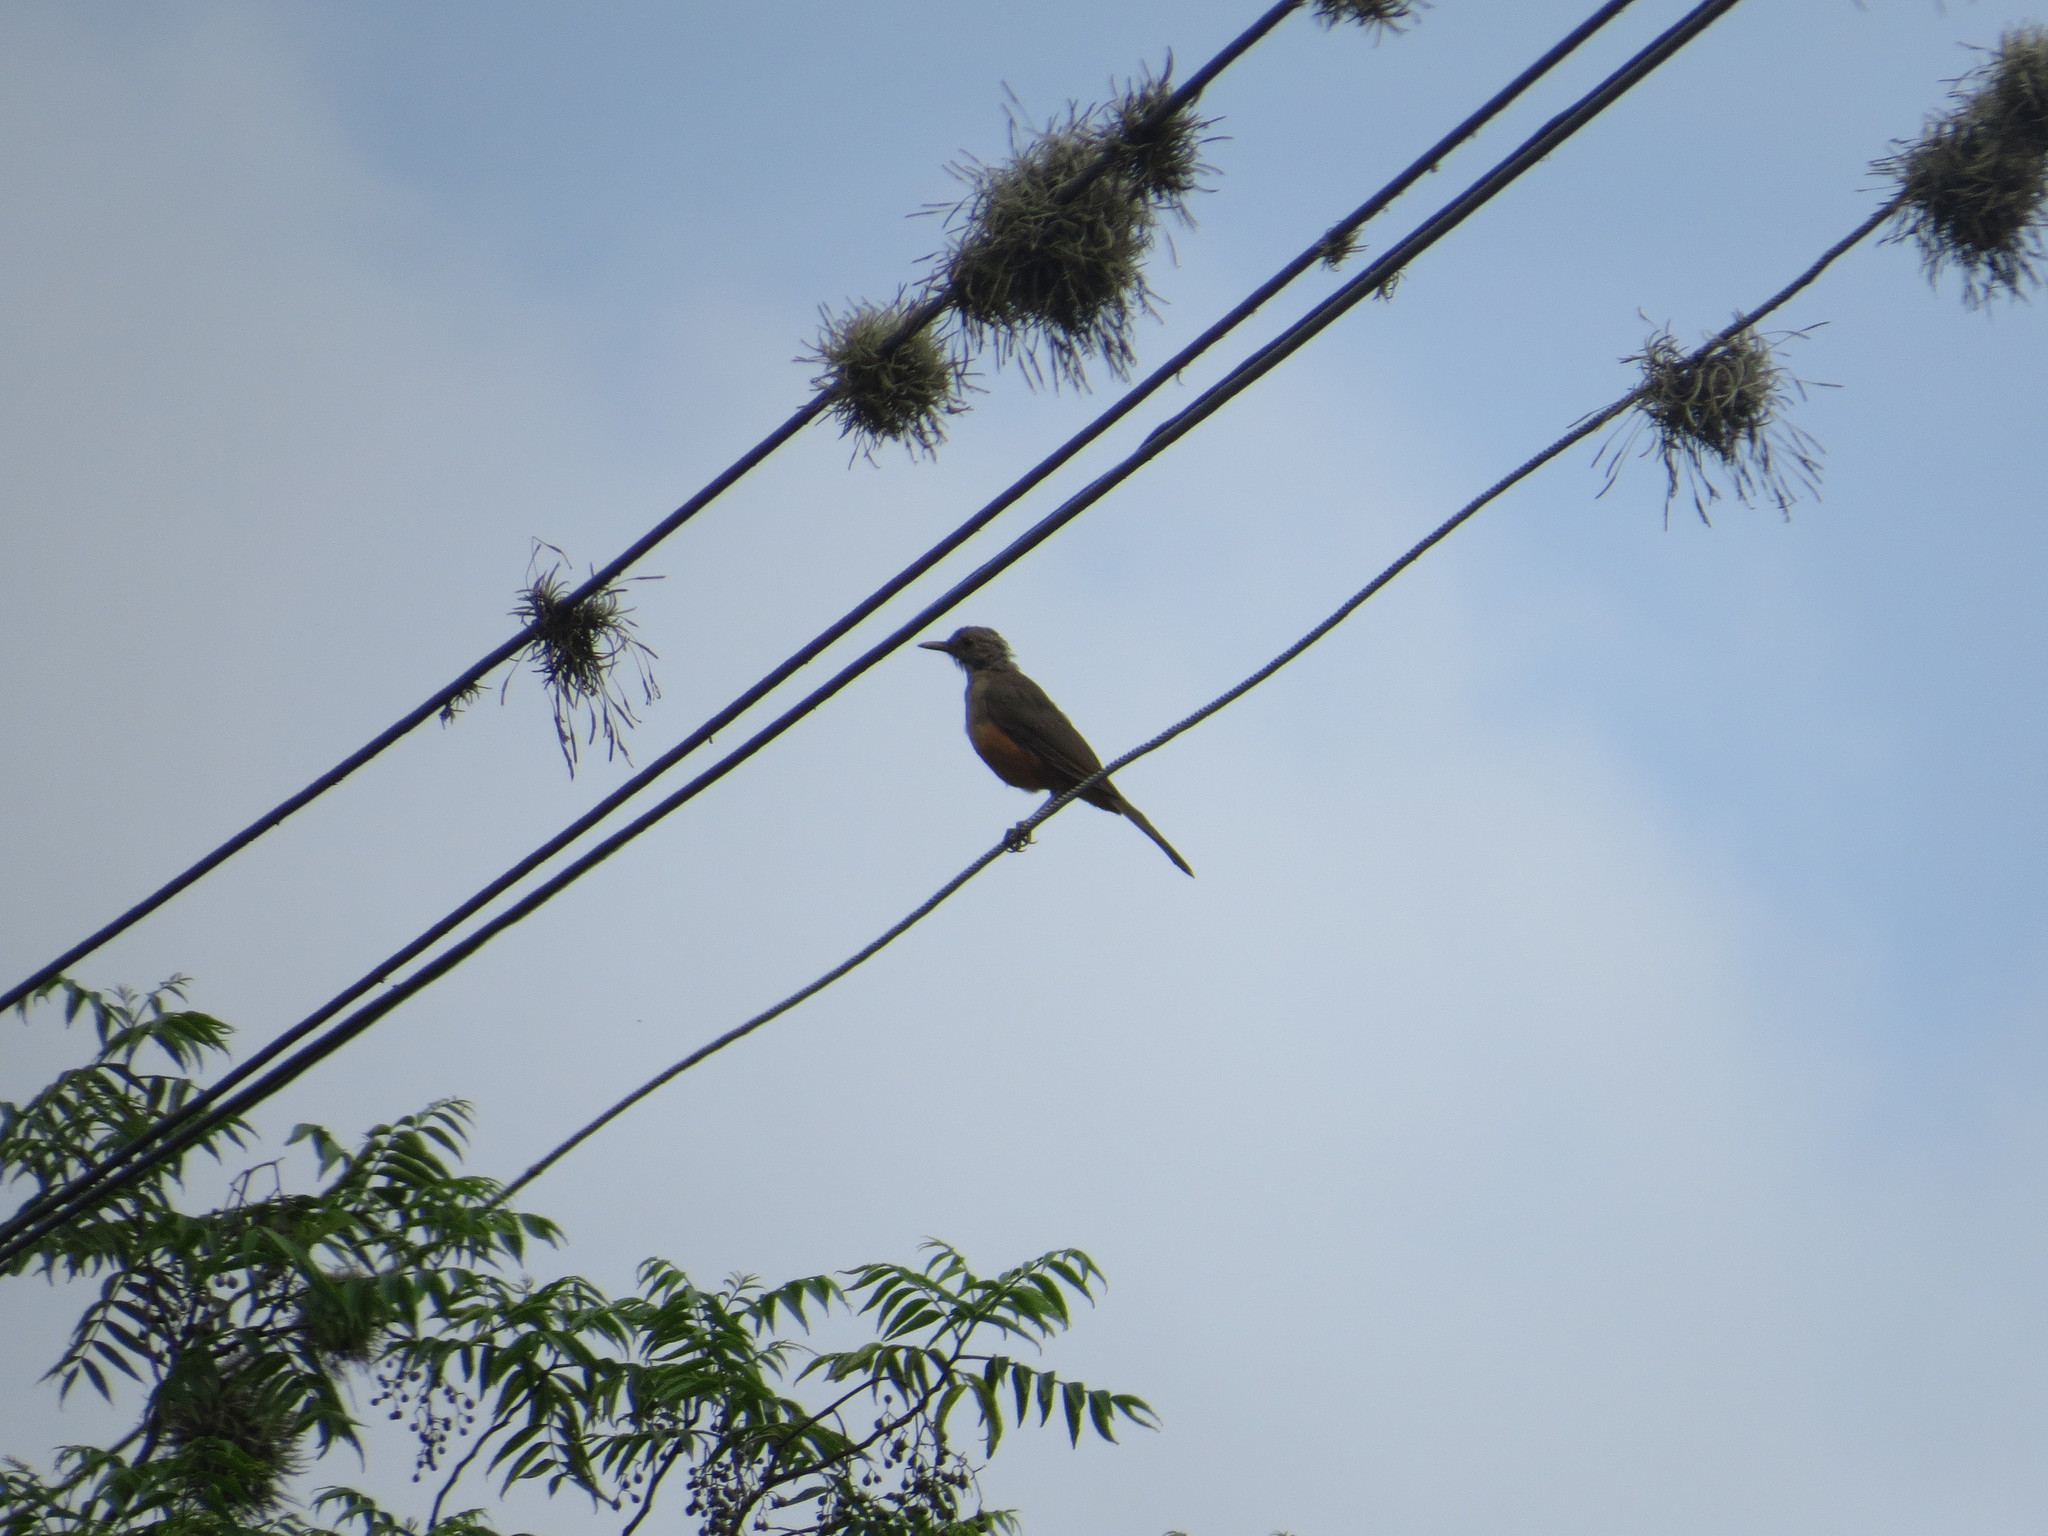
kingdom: Animalia
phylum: Chordata
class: Aves
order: Passeriformes
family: Turdidae
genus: Turdus
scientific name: Turdus rufiventris
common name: Rufous-bellied thrush
